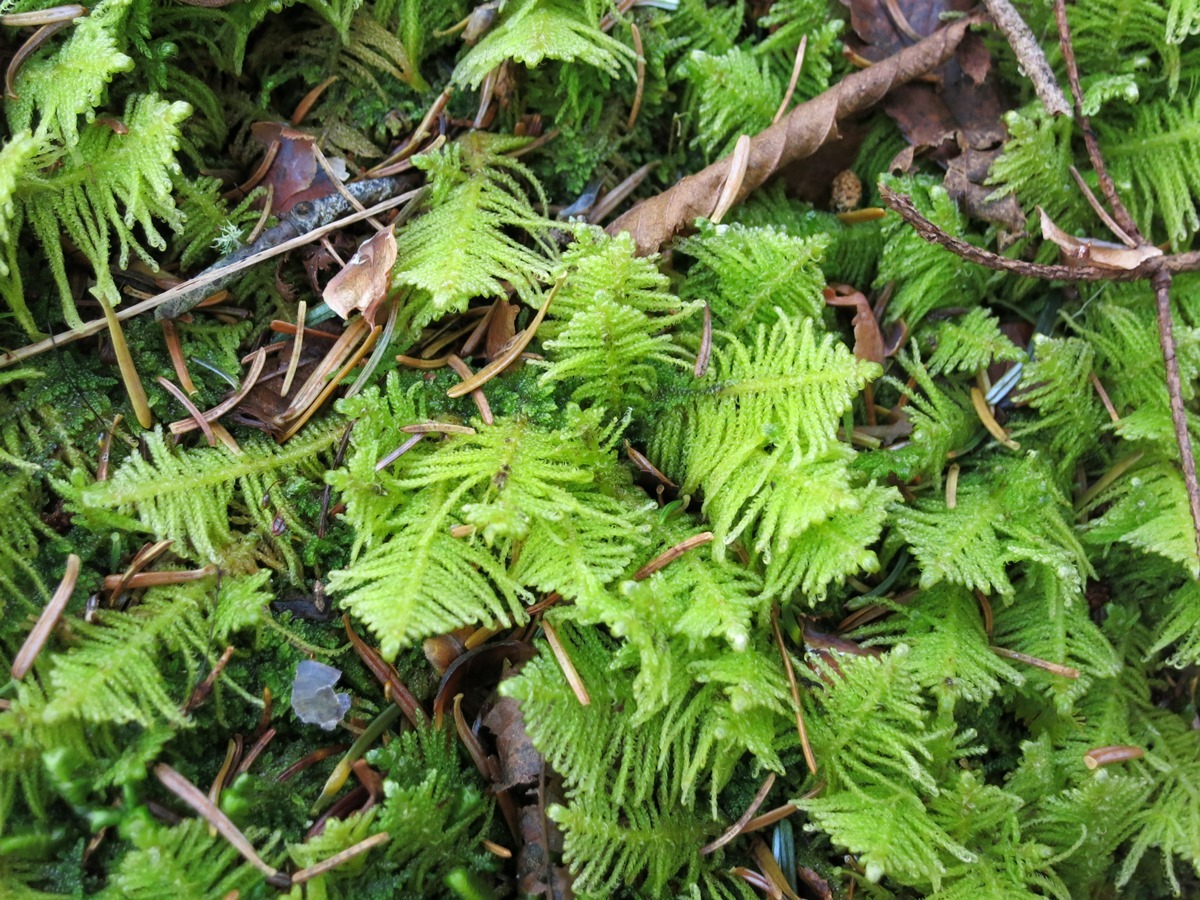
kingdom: Plantae
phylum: Bryophyta
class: Bryopsida
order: Hypnales
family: Pylaisiaceae
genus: Ptilium
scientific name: Ptilium crista-castrensis
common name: Knight's plume moss
